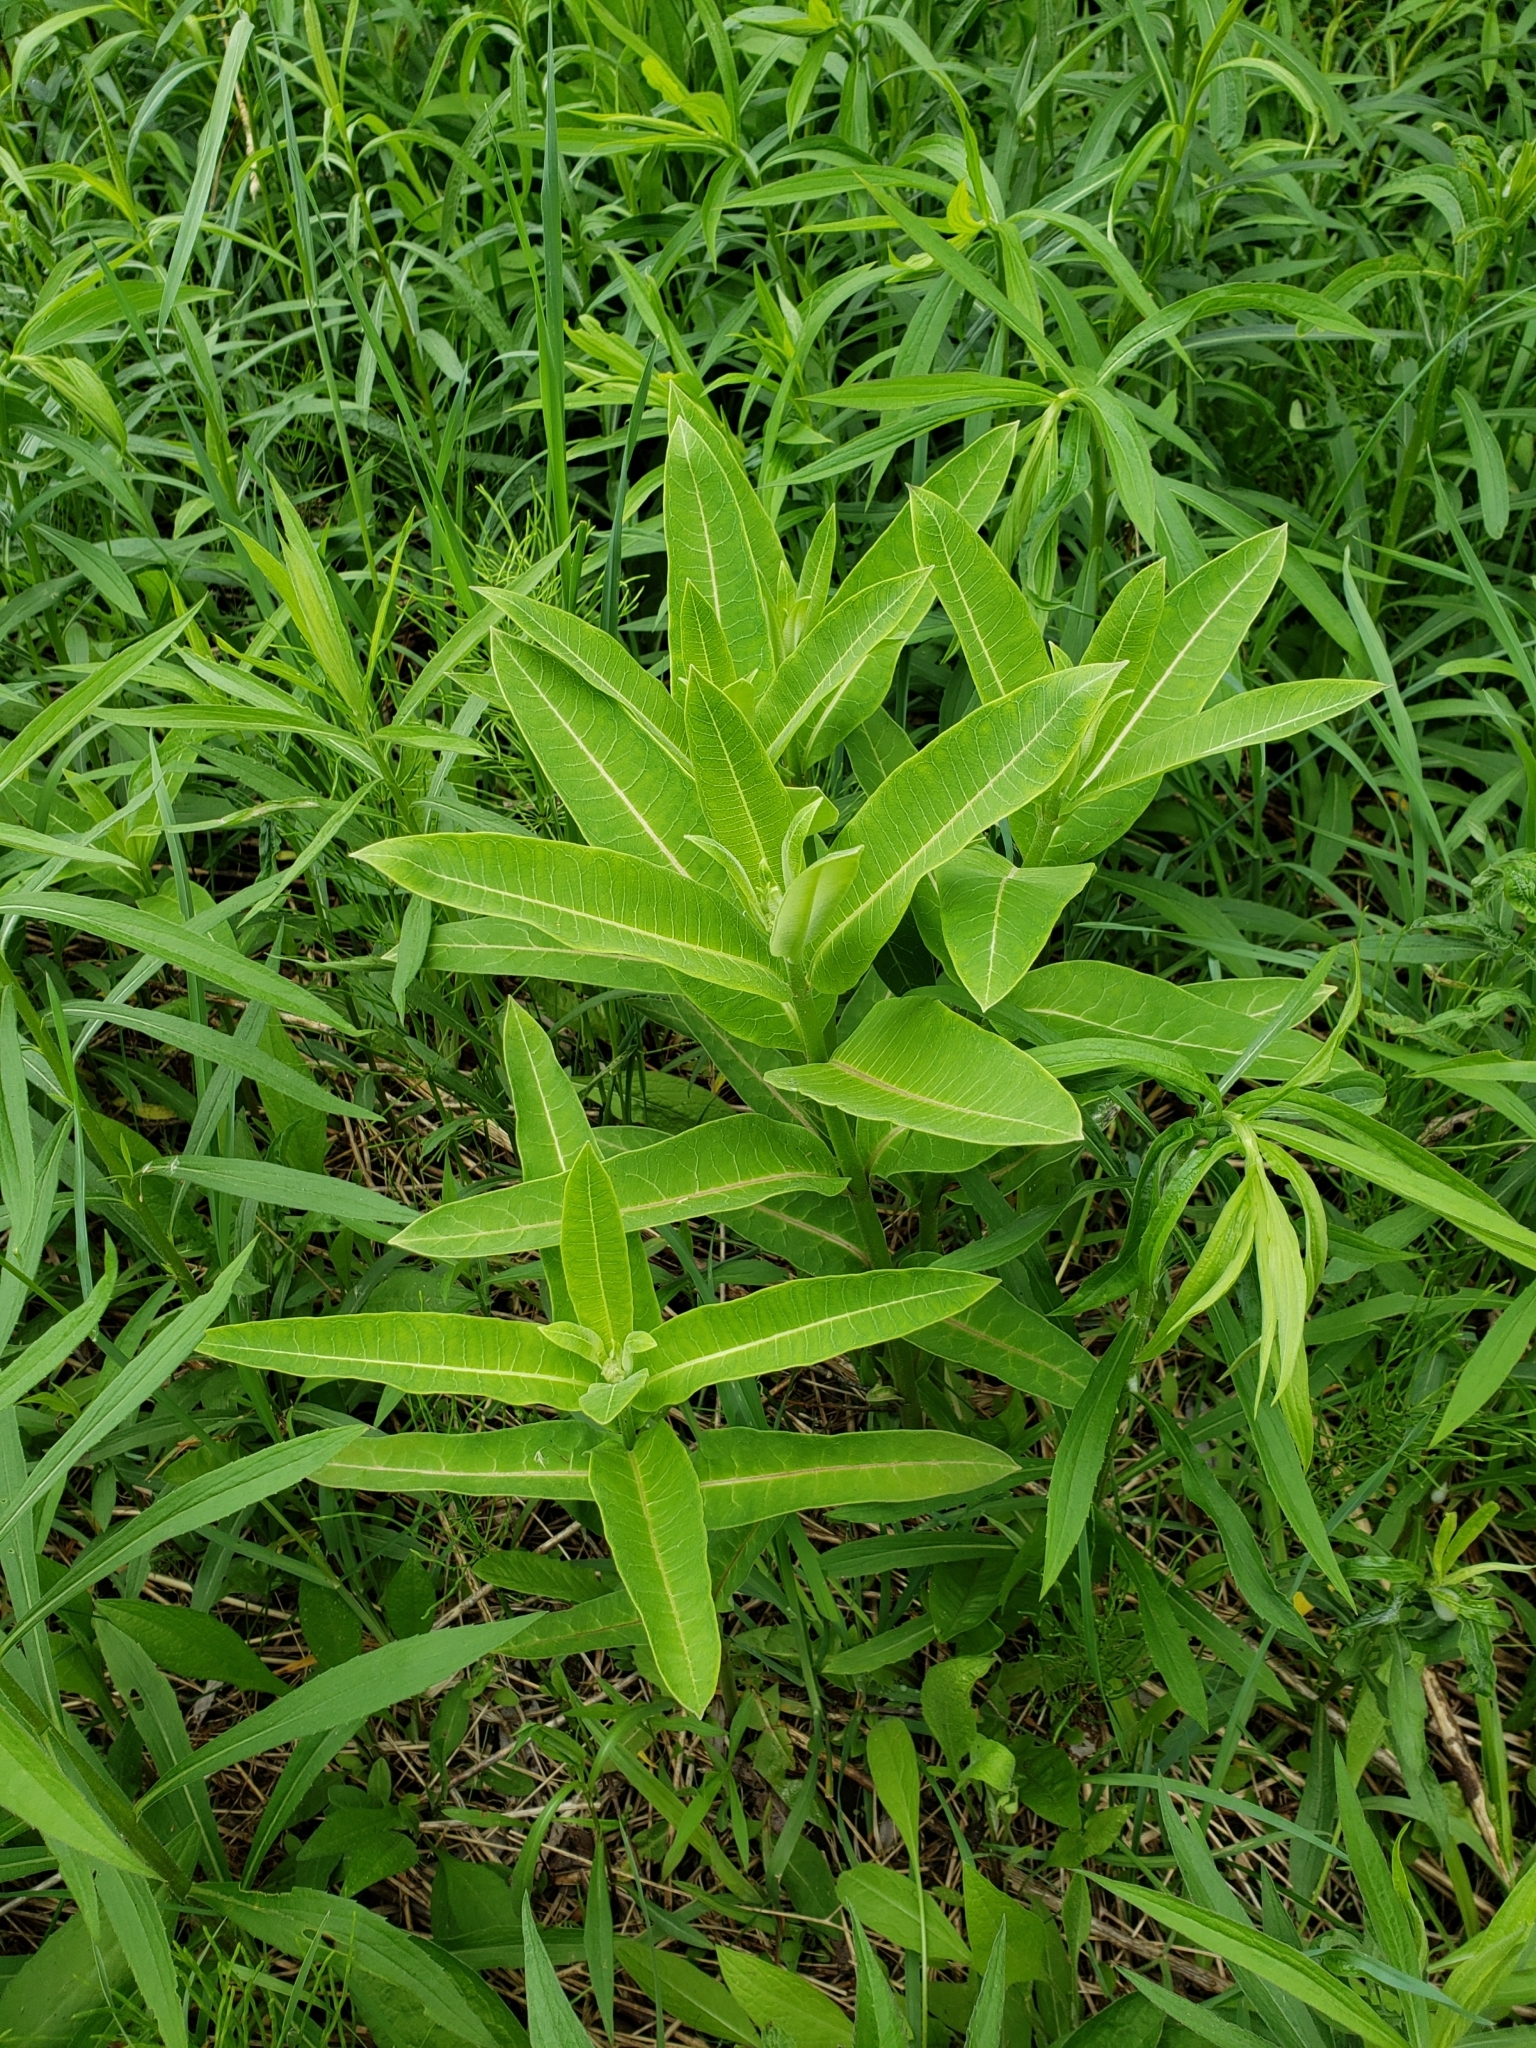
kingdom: Plantae
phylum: Tracheophyta
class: Magnoliopsida
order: Gentianales
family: Apocynaceae
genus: Asclepias
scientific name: Asclepias syriaca
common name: Common milkweed
